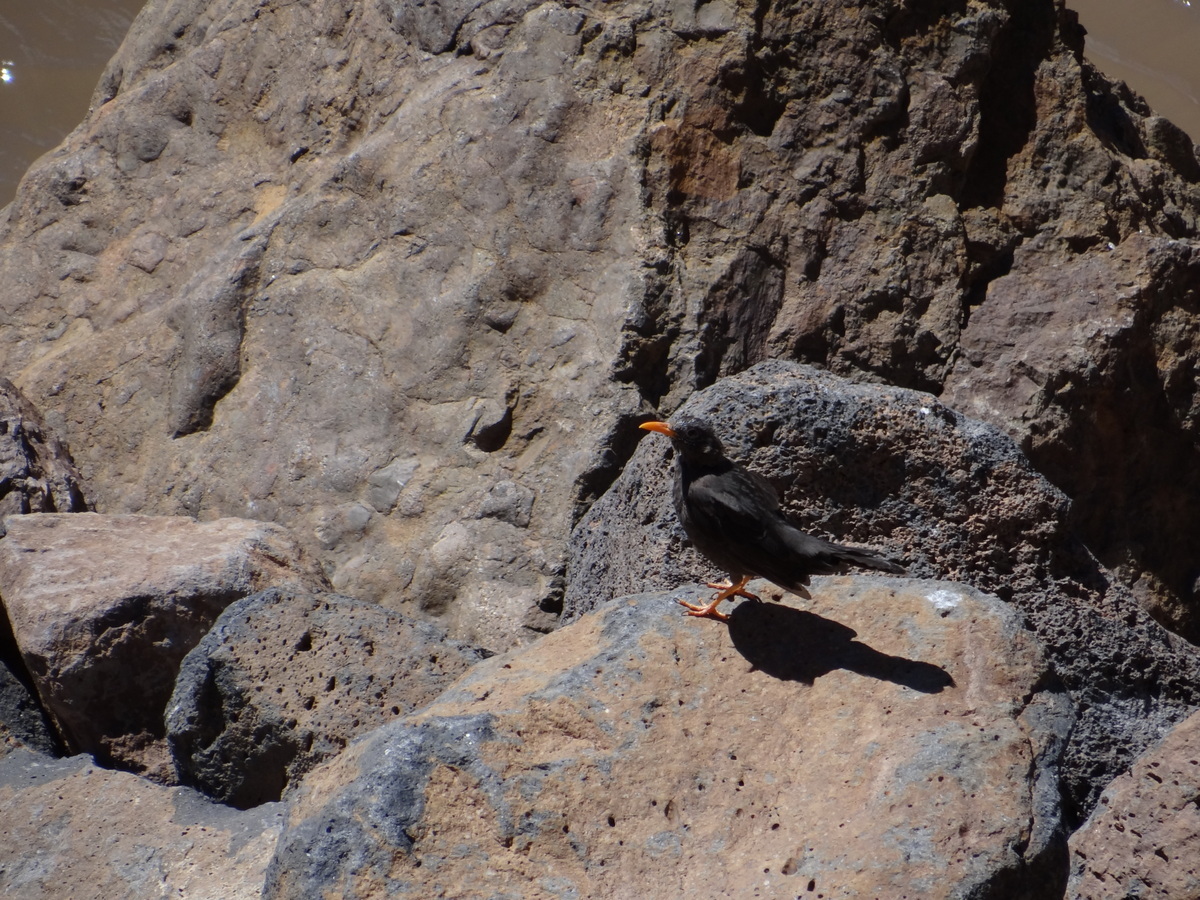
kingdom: Animalia
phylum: Chordata
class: Aves
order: Passeriformes
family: Turdidae
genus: Turdus
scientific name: Turdus chiguanco
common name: Chiguanco thrush
